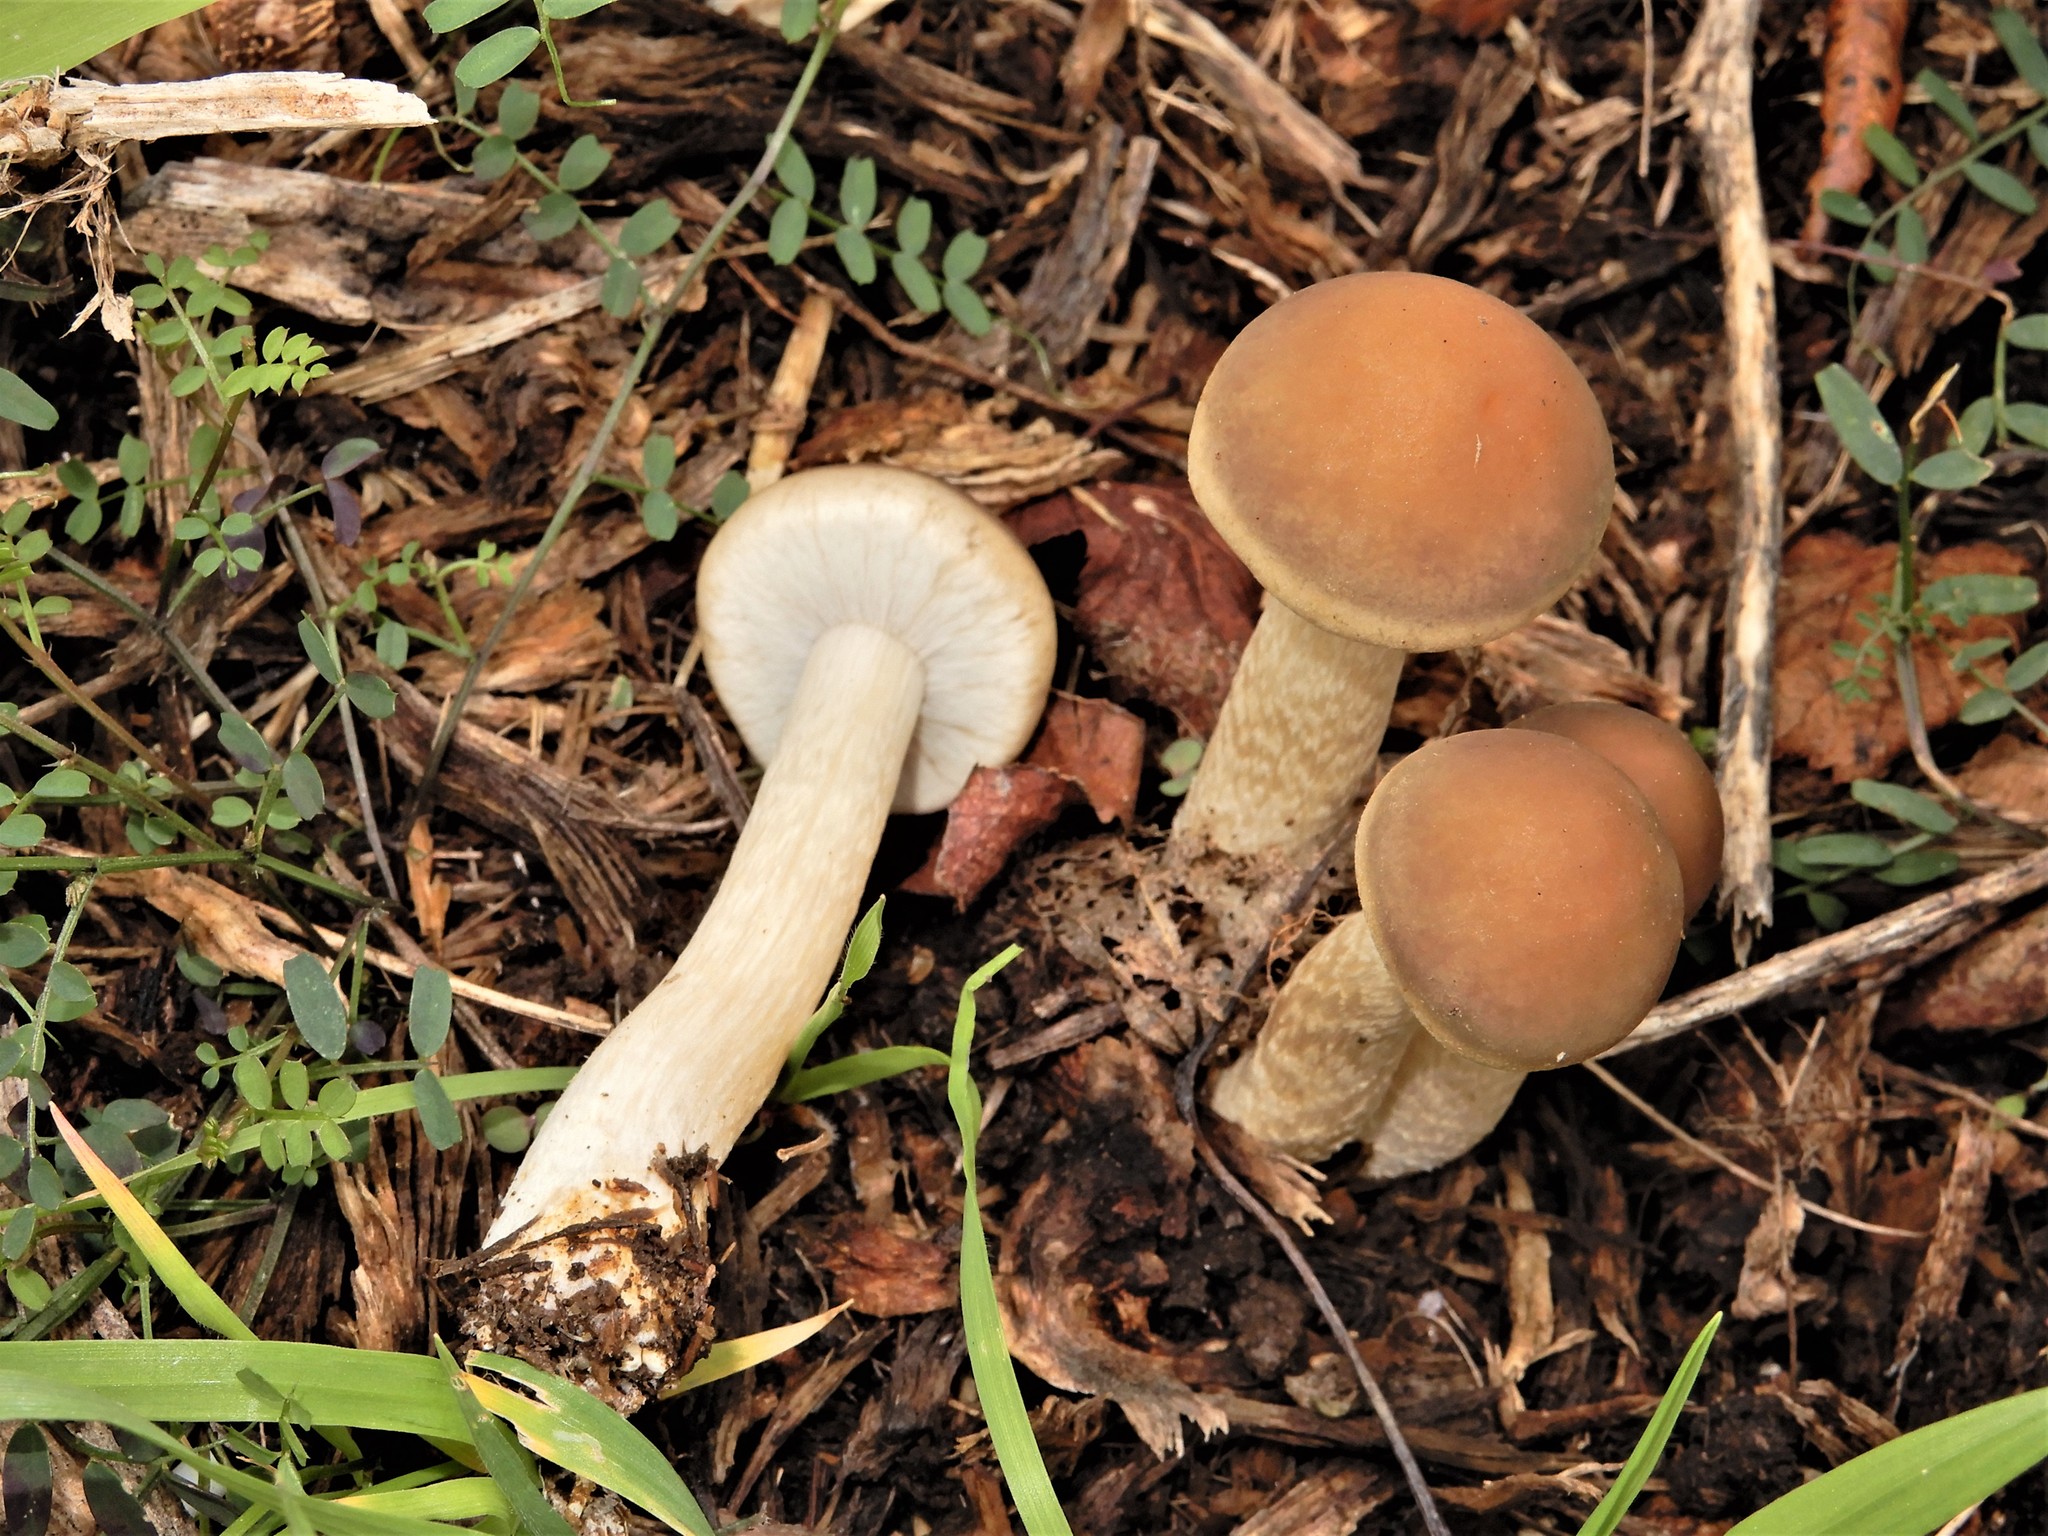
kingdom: Fungi
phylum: Basidiomycota
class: Agaricomycetes
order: Agaricales
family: Strophariaceae
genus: Agrocybe
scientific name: Agrocybe praecox
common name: Spring fieldcap
